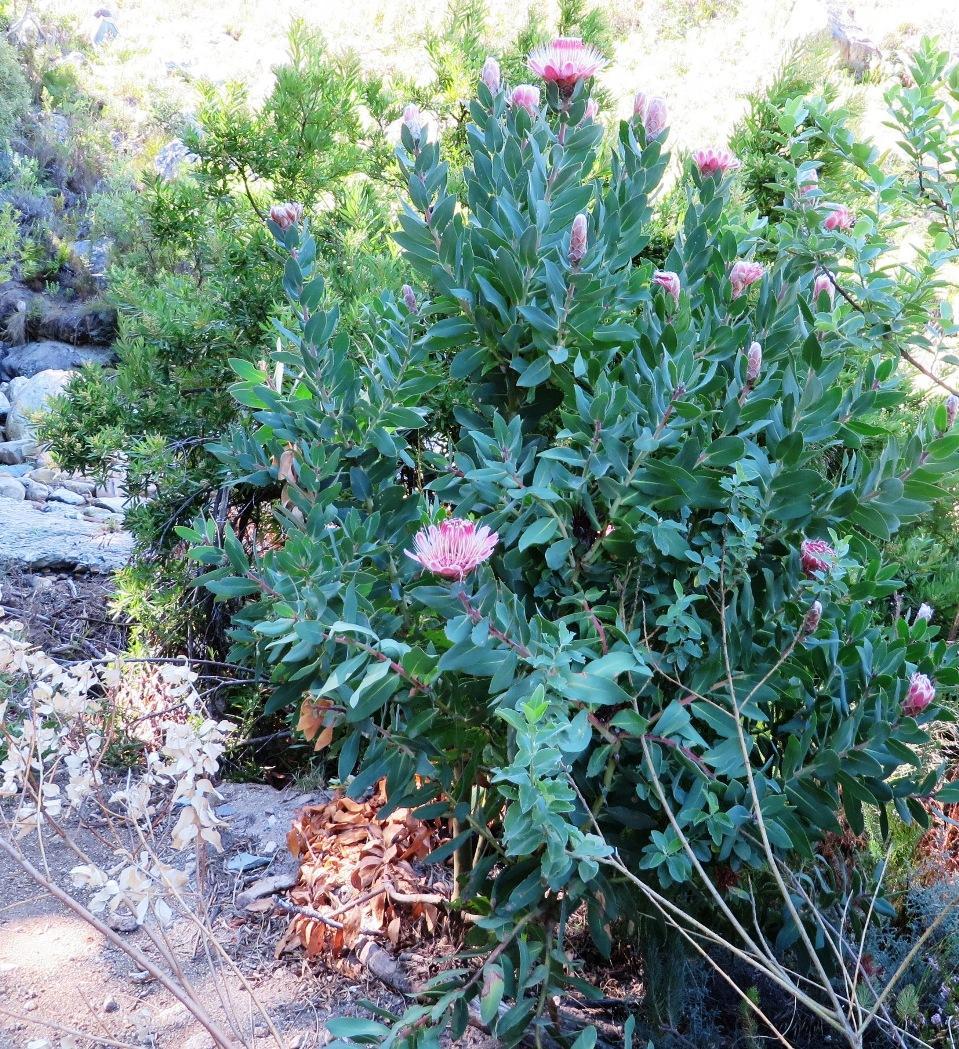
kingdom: Plantae
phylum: Tracheophyta
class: Magnoliopsida
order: Proteales
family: Proteaceae
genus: Protea
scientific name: Protea punctata
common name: Water sugarbush
